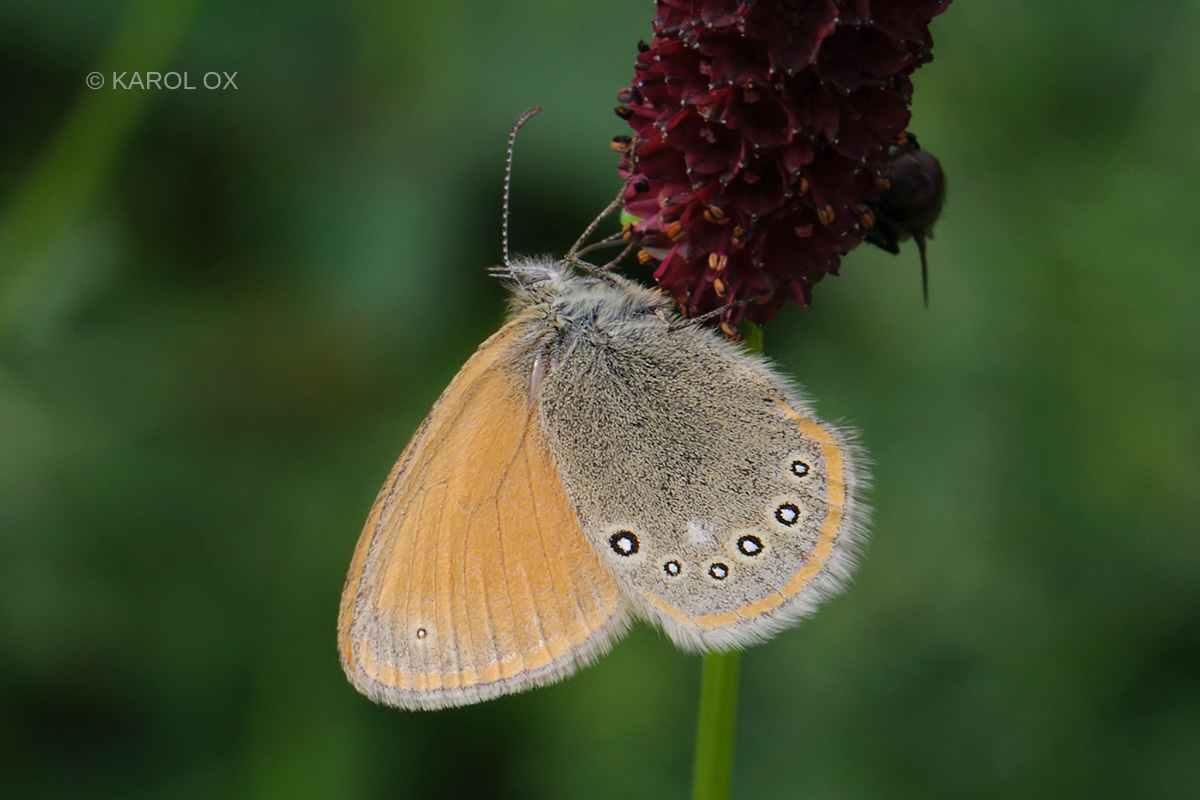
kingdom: Animalia
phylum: Arthropoda
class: Insecta
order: Lepidoptera
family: Nymphalidae
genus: Coenonympha
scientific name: Coenonympha iphis
